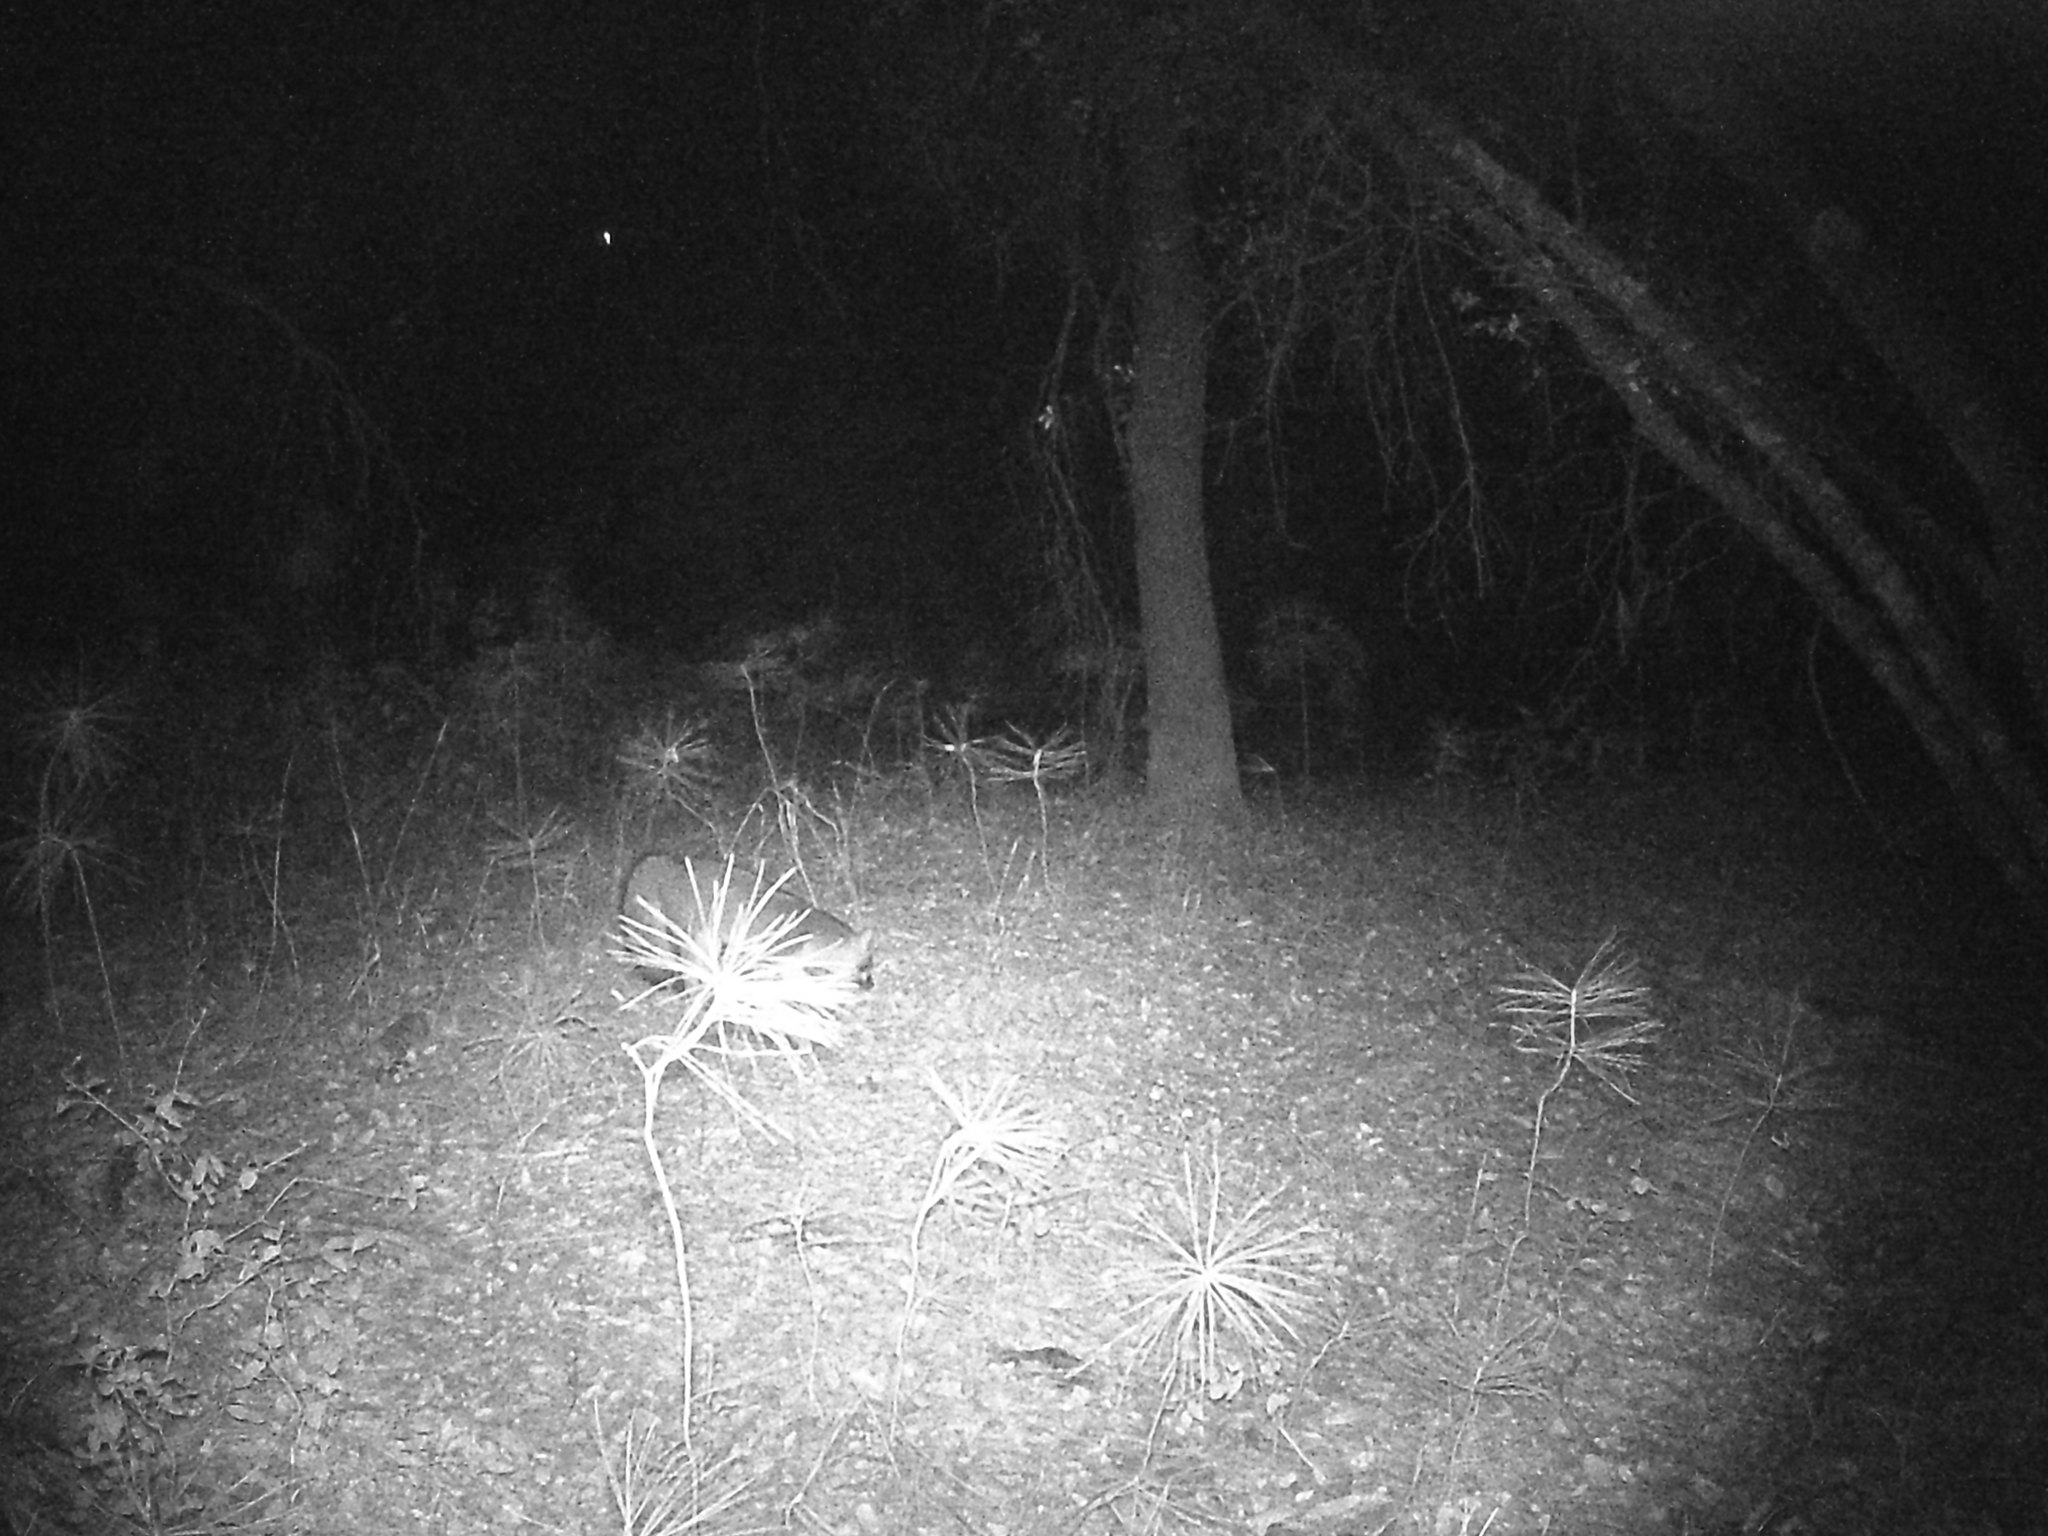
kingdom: Animalia
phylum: Chordata
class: Mammalia
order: Carnivora
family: Canidae
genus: Urocyon
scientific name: Urocyon cinereoargenteus
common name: Gray fox
